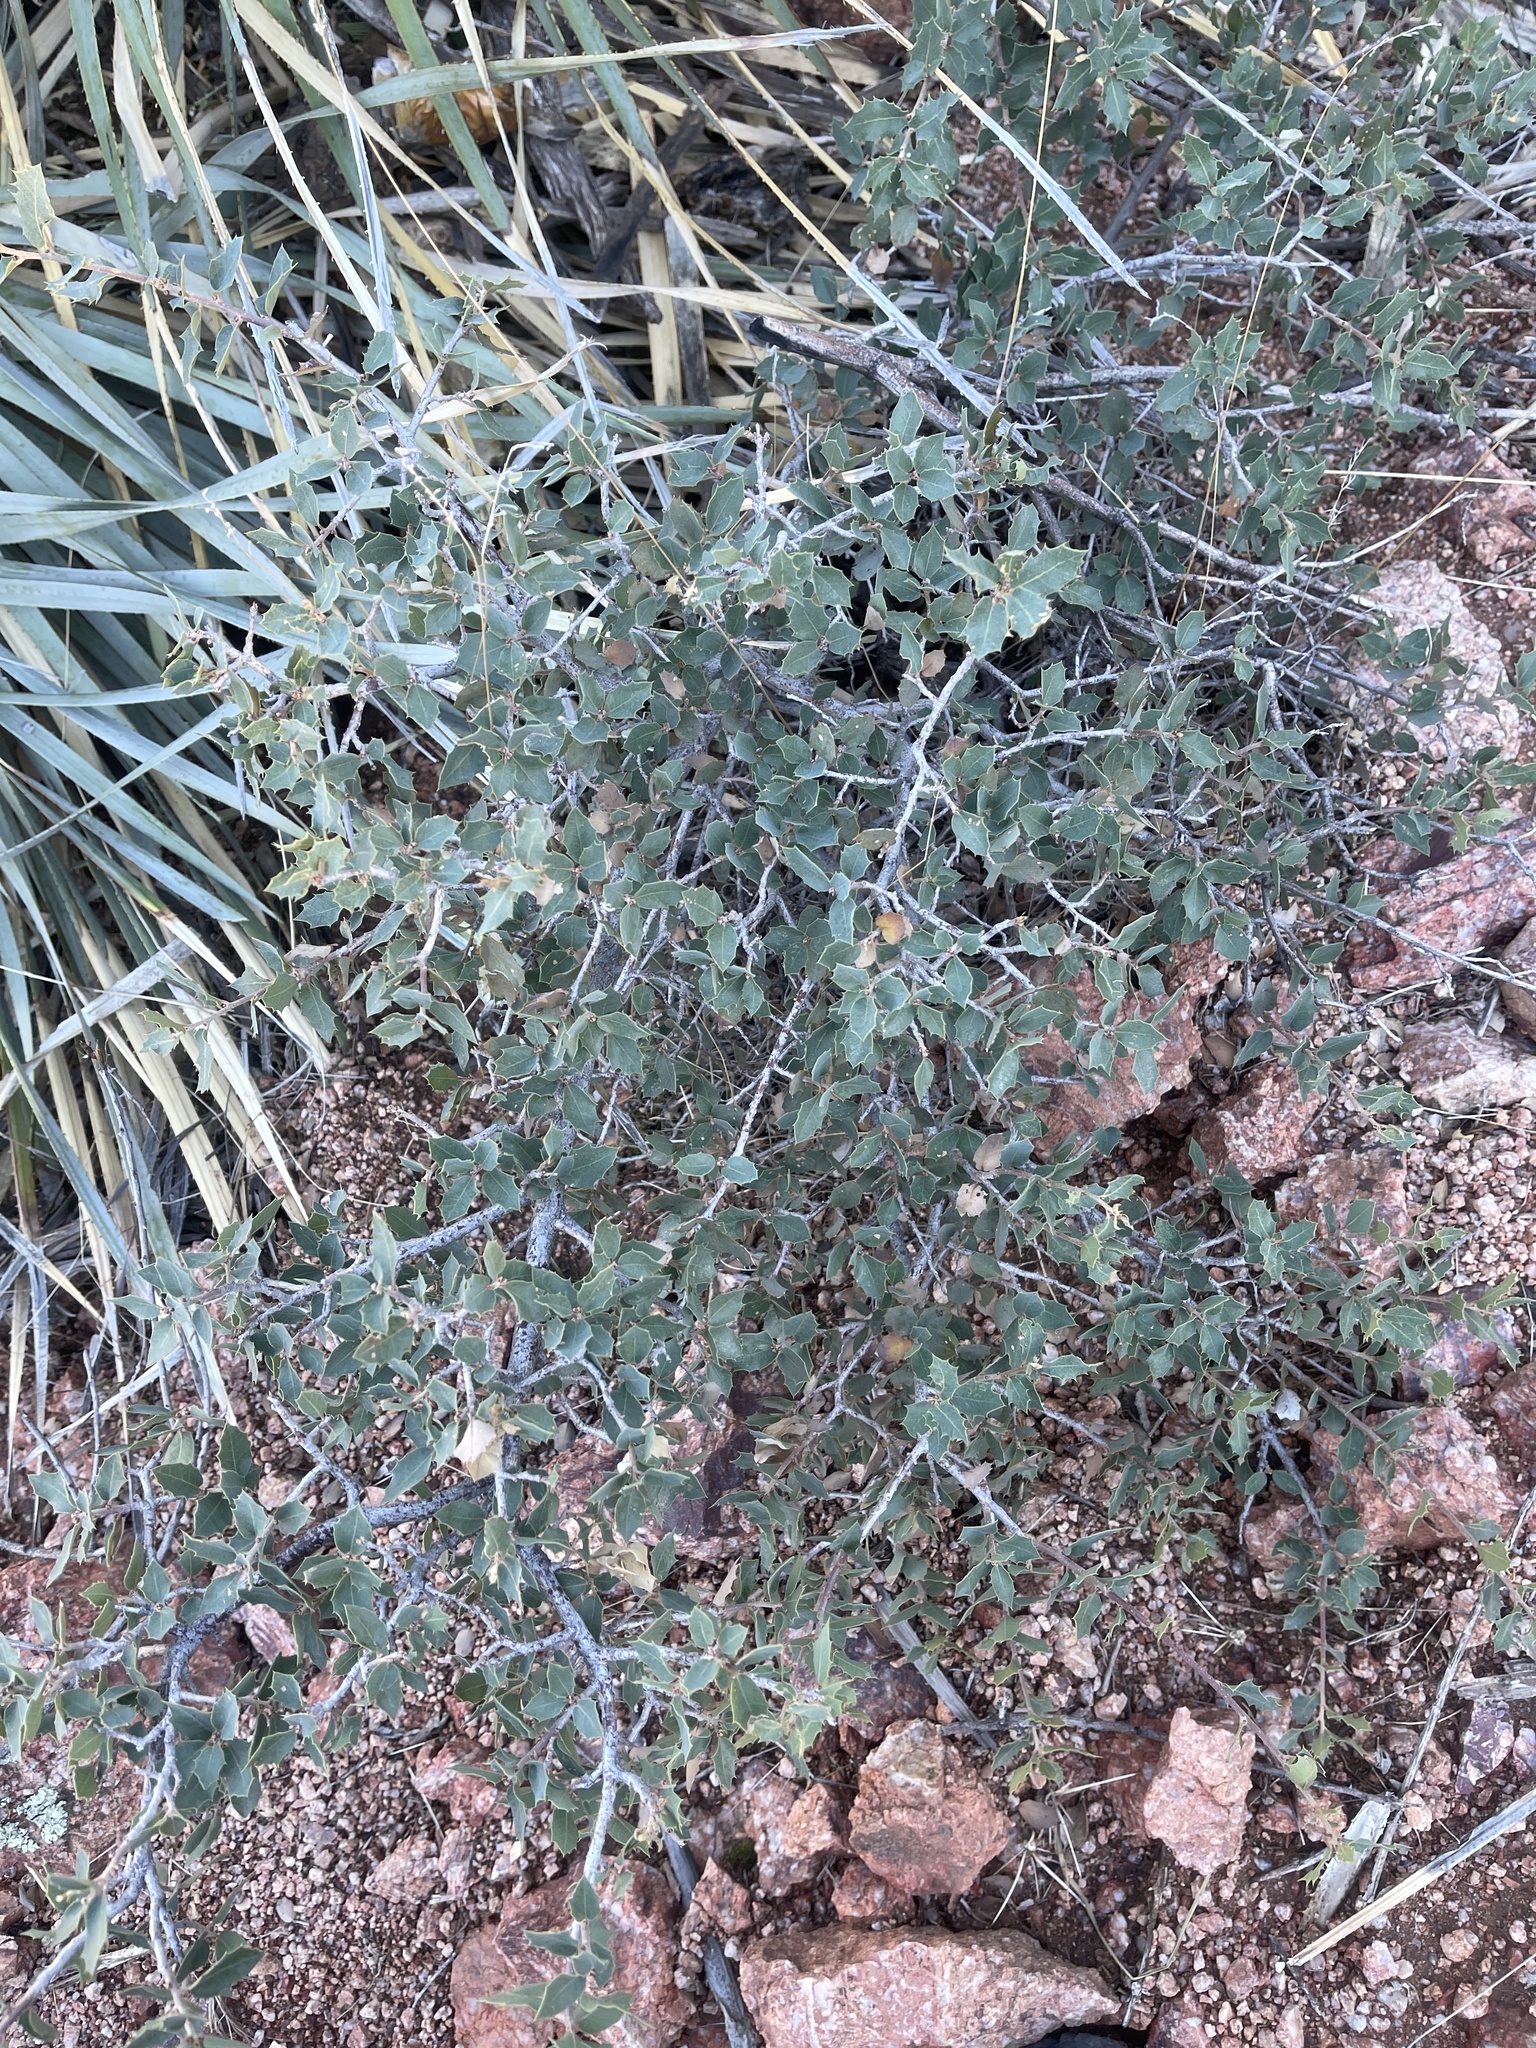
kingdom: Plantae
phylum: Tracheophyta
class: Magnoliopsida
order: Fagales
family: Fagaceae
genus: Quercus
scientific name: Quercus turbinella
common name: Sonoran scrub oak
